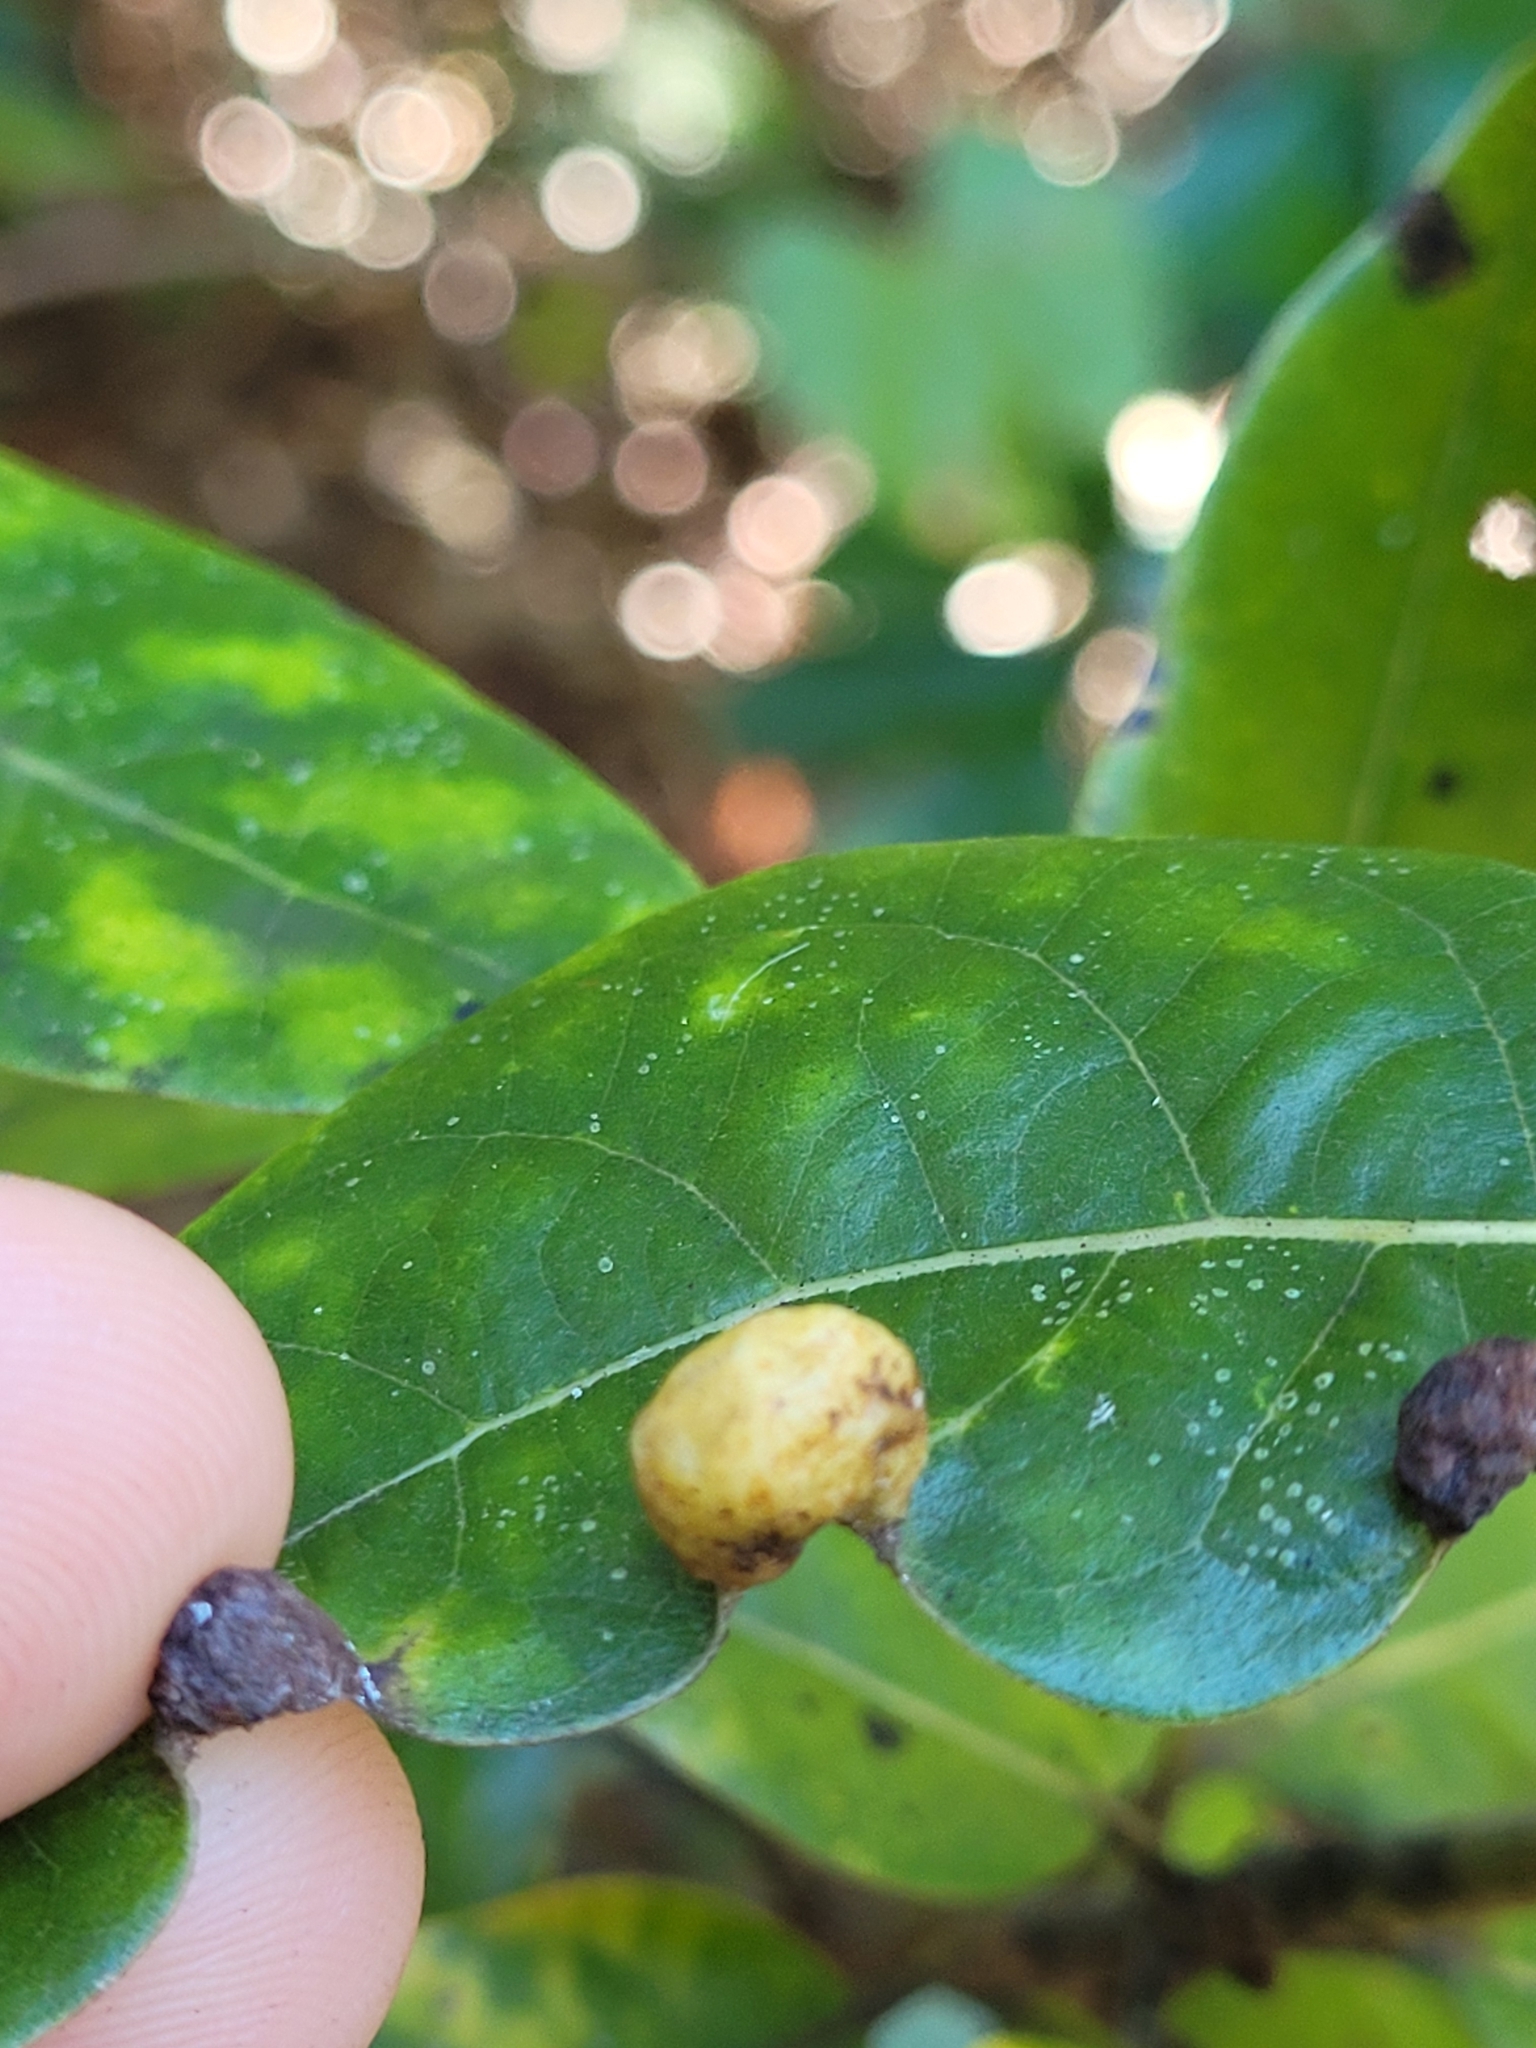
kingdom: Animalia
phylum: Arthropoda
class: Insecta
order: Hemiptera
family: Triozidae
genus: Trioza
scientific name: Trioza magnoliae
